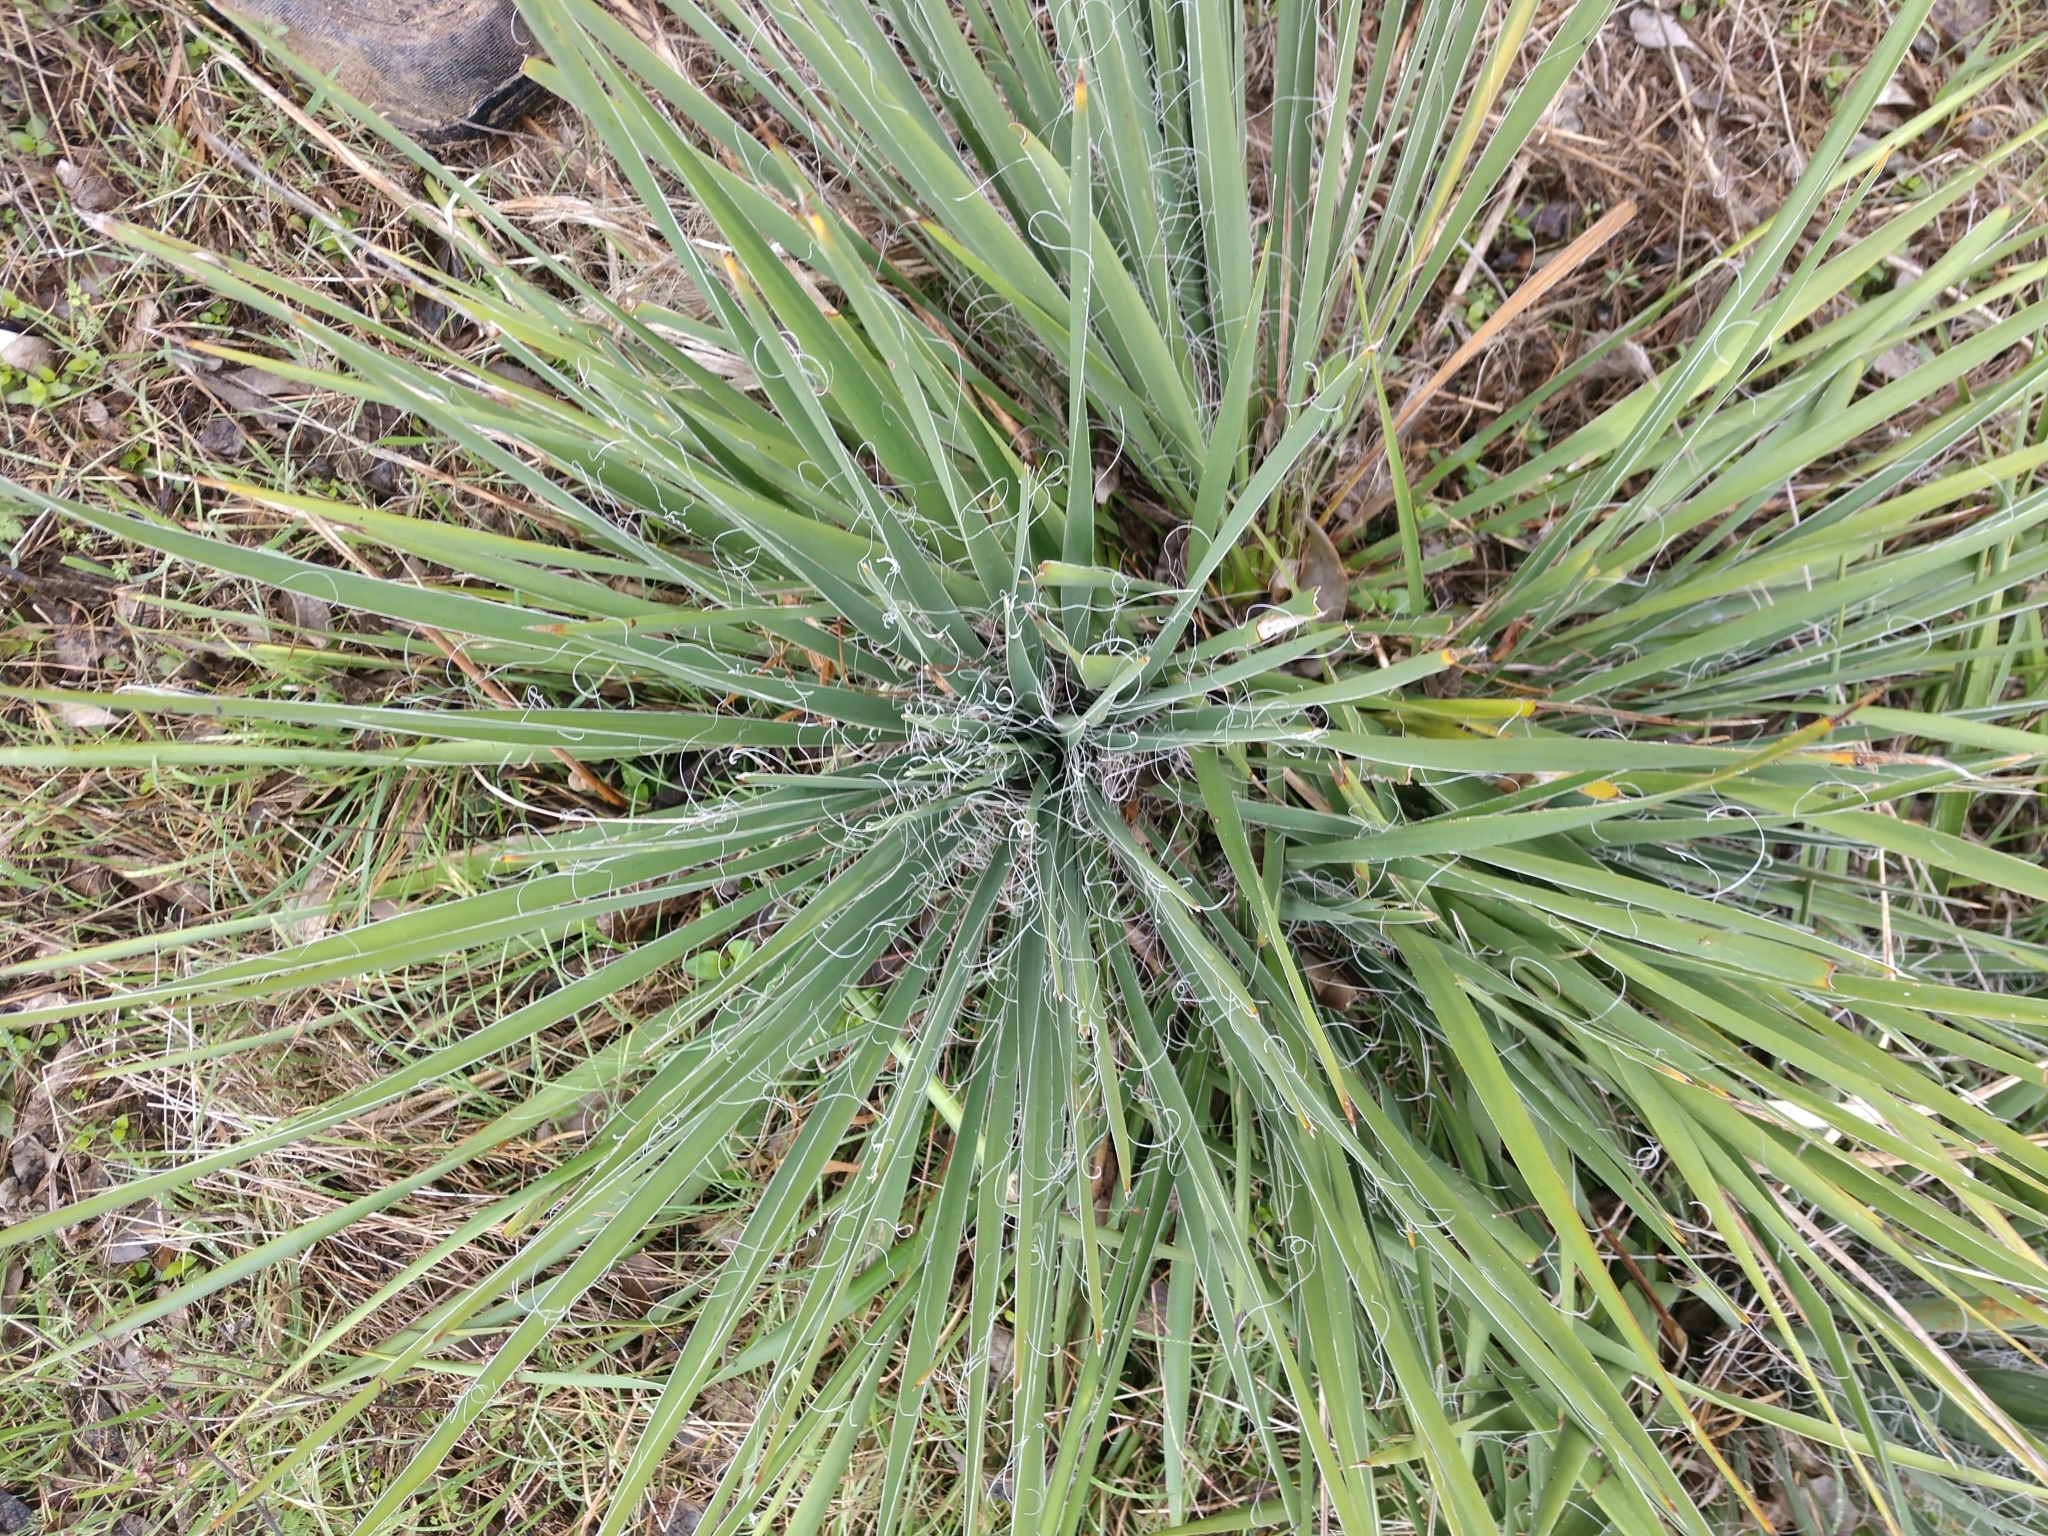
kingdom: Plantae
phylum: Tracheophyta
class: Liliopsida
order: Asparagales
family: Asparagaceae
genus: Yucca
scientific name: Yucca constricta
